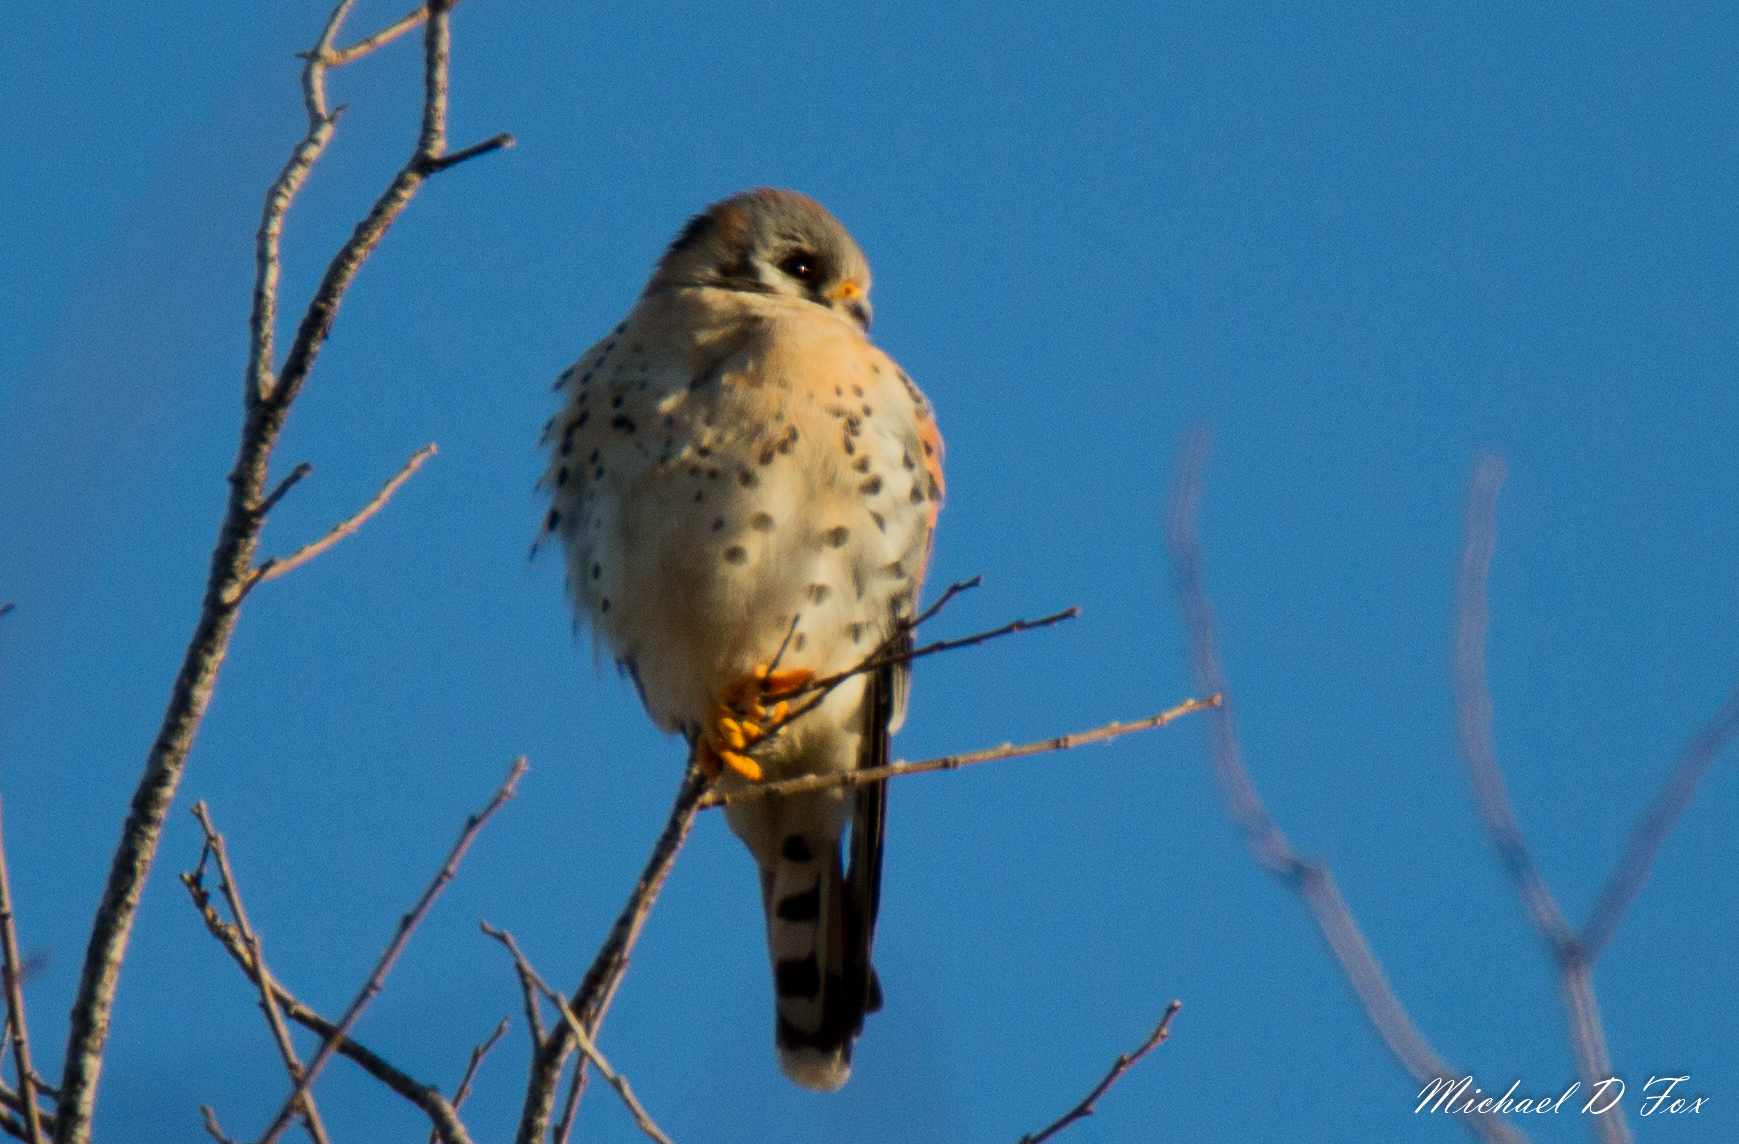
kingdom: Animalia
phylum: Chordata
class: Aves
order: Falconiformes
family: Falconidae
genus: Falco
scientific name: Falco sparverius
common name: American kestrel
